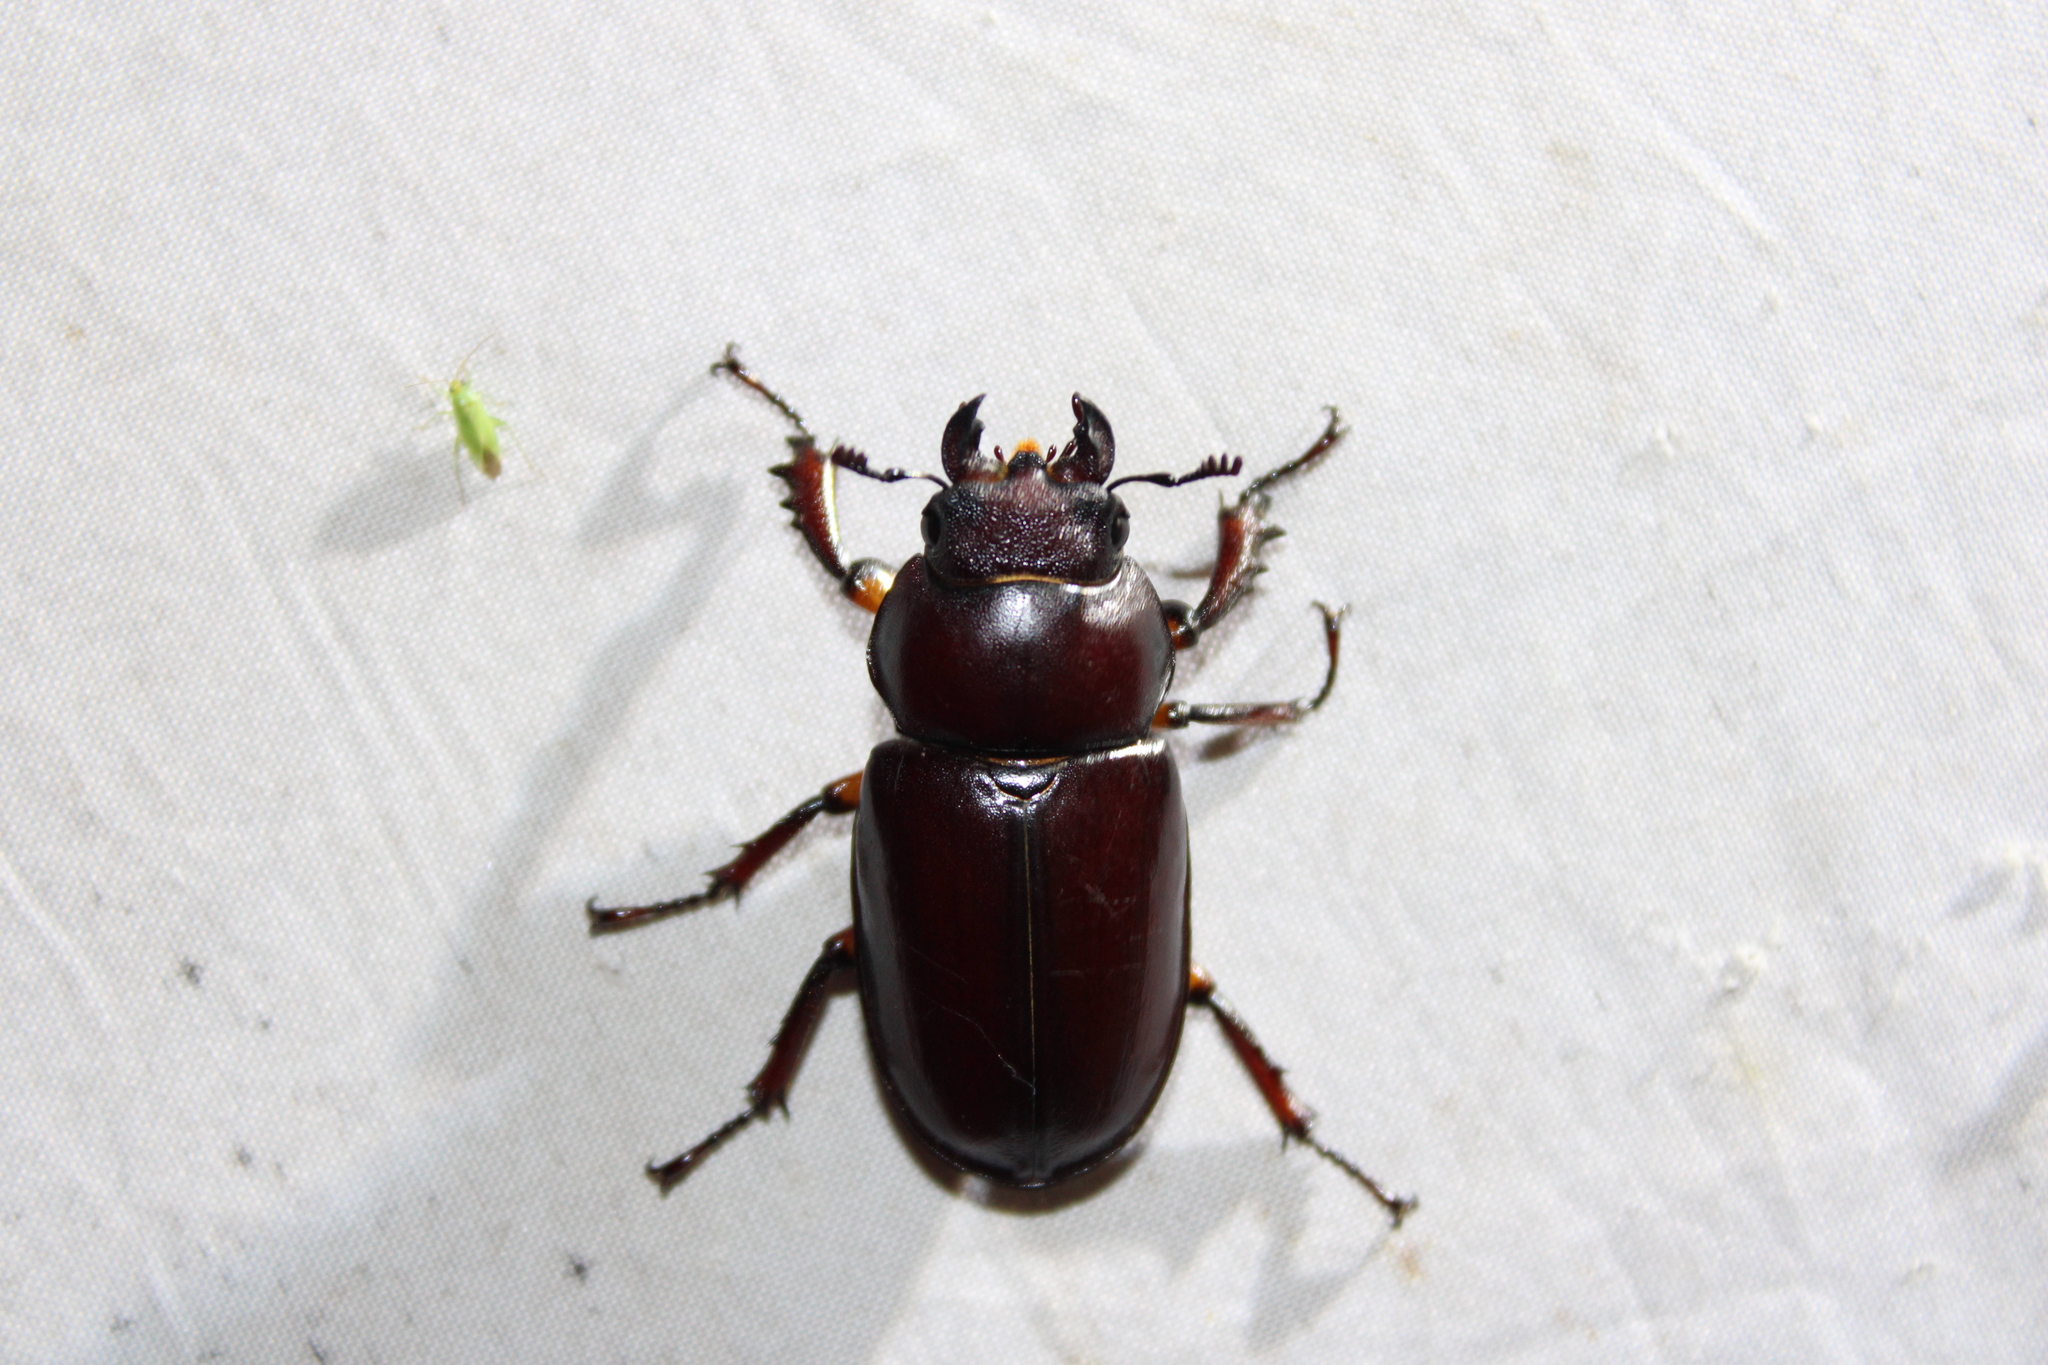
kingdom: Animalia
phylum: Arthropoda
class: Insecta
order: Coleoptera
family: Lucanidae
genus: Lucanus
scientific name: Lucanus capreolus
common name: Stag beetle
